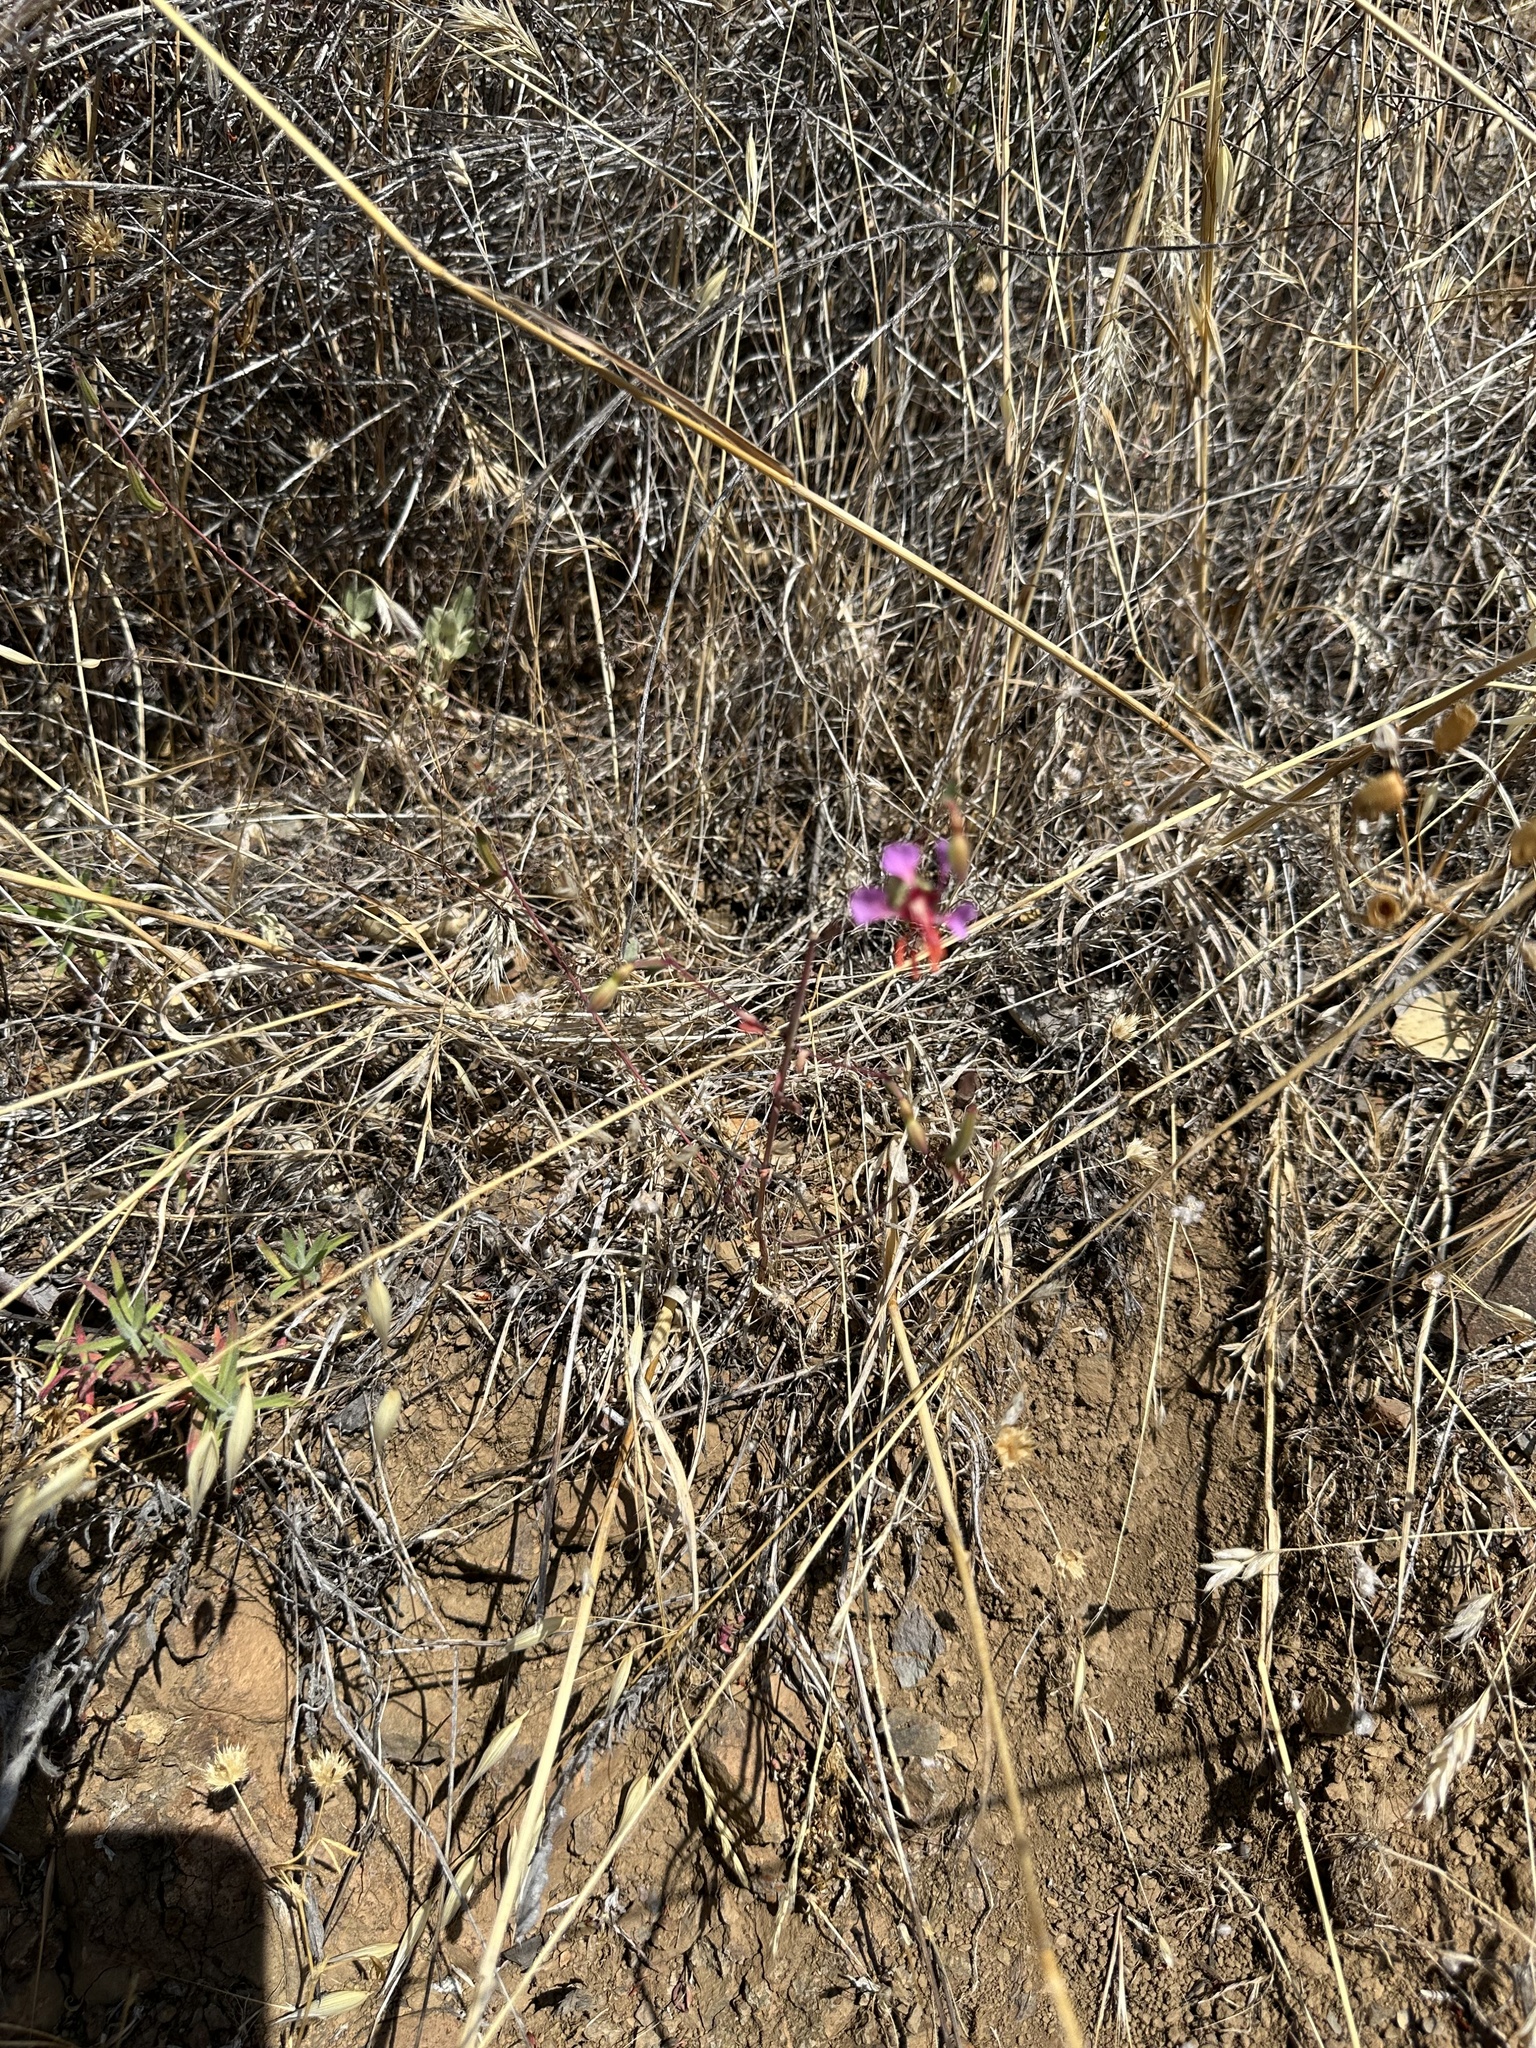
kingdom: Plantae
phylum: Tracheophyta
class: Magnoliopsida
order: Myrtales
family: Onagraceae
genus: Clarkia
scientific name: Clarkia unguiculata
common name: Clarkia
